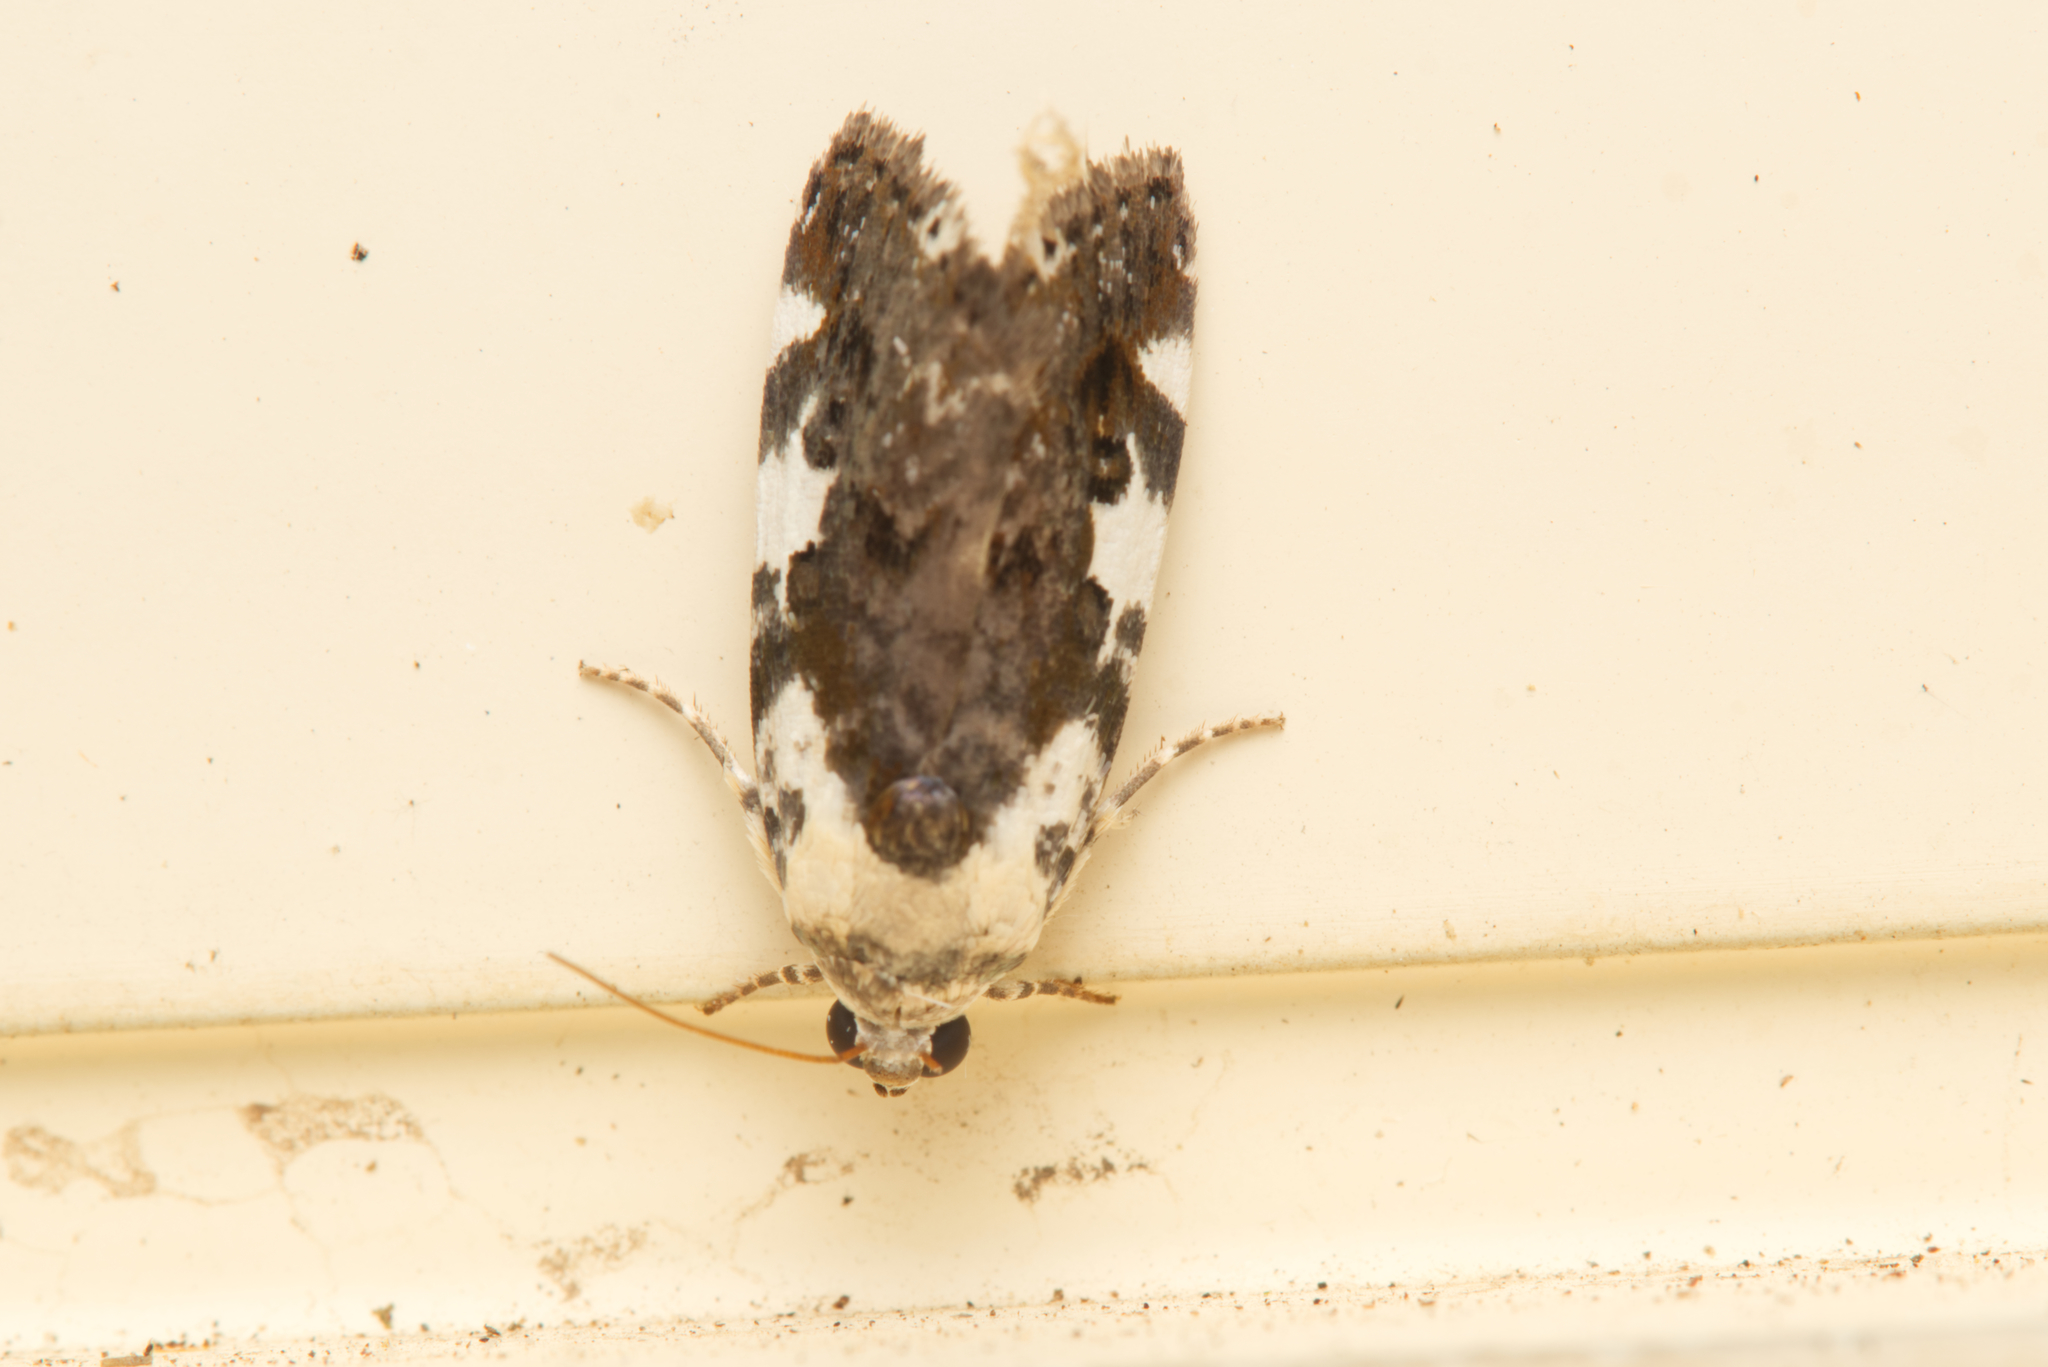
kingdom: Animalia
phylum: Arthropoda
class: Insecta
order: Lepidoptera
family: Noctuidae
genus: Acontia
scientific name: Acontia nivipicta
